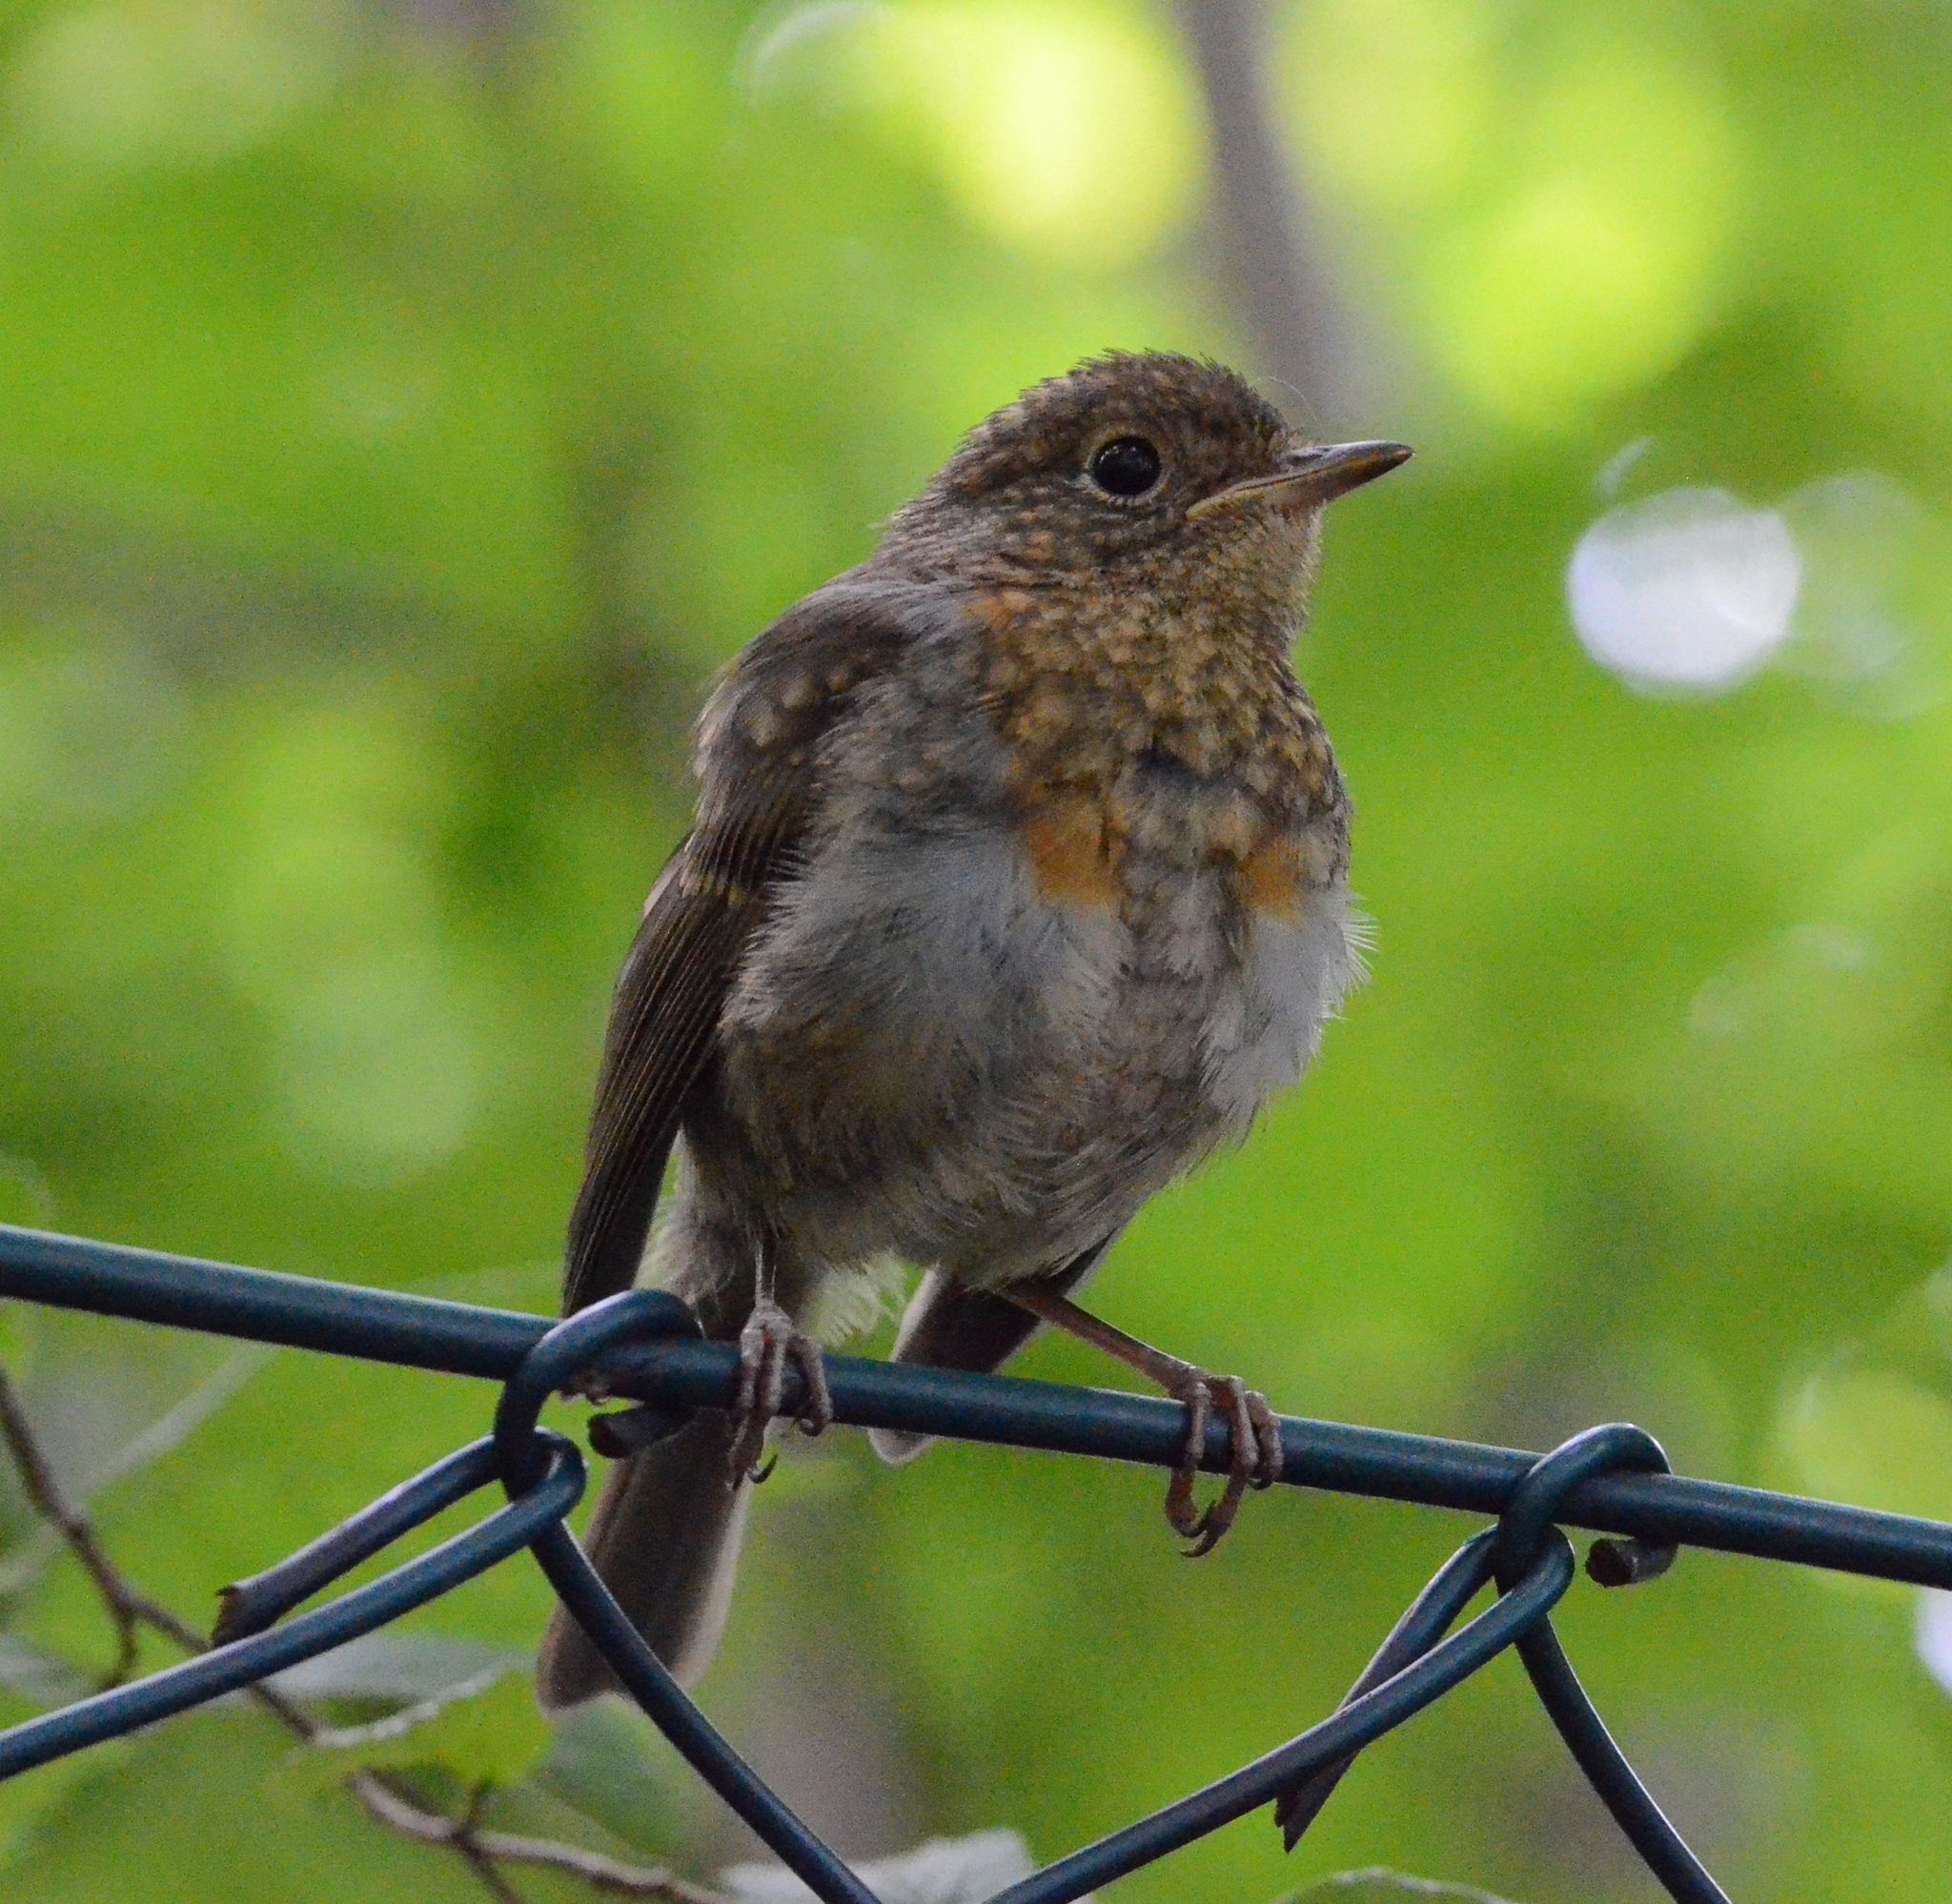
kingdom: Animalia
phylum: Chordata
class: Aves
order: Passeriformes
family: Muscicapidae
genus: Erithacus
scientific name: Erithacus rubecula
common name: European robin
